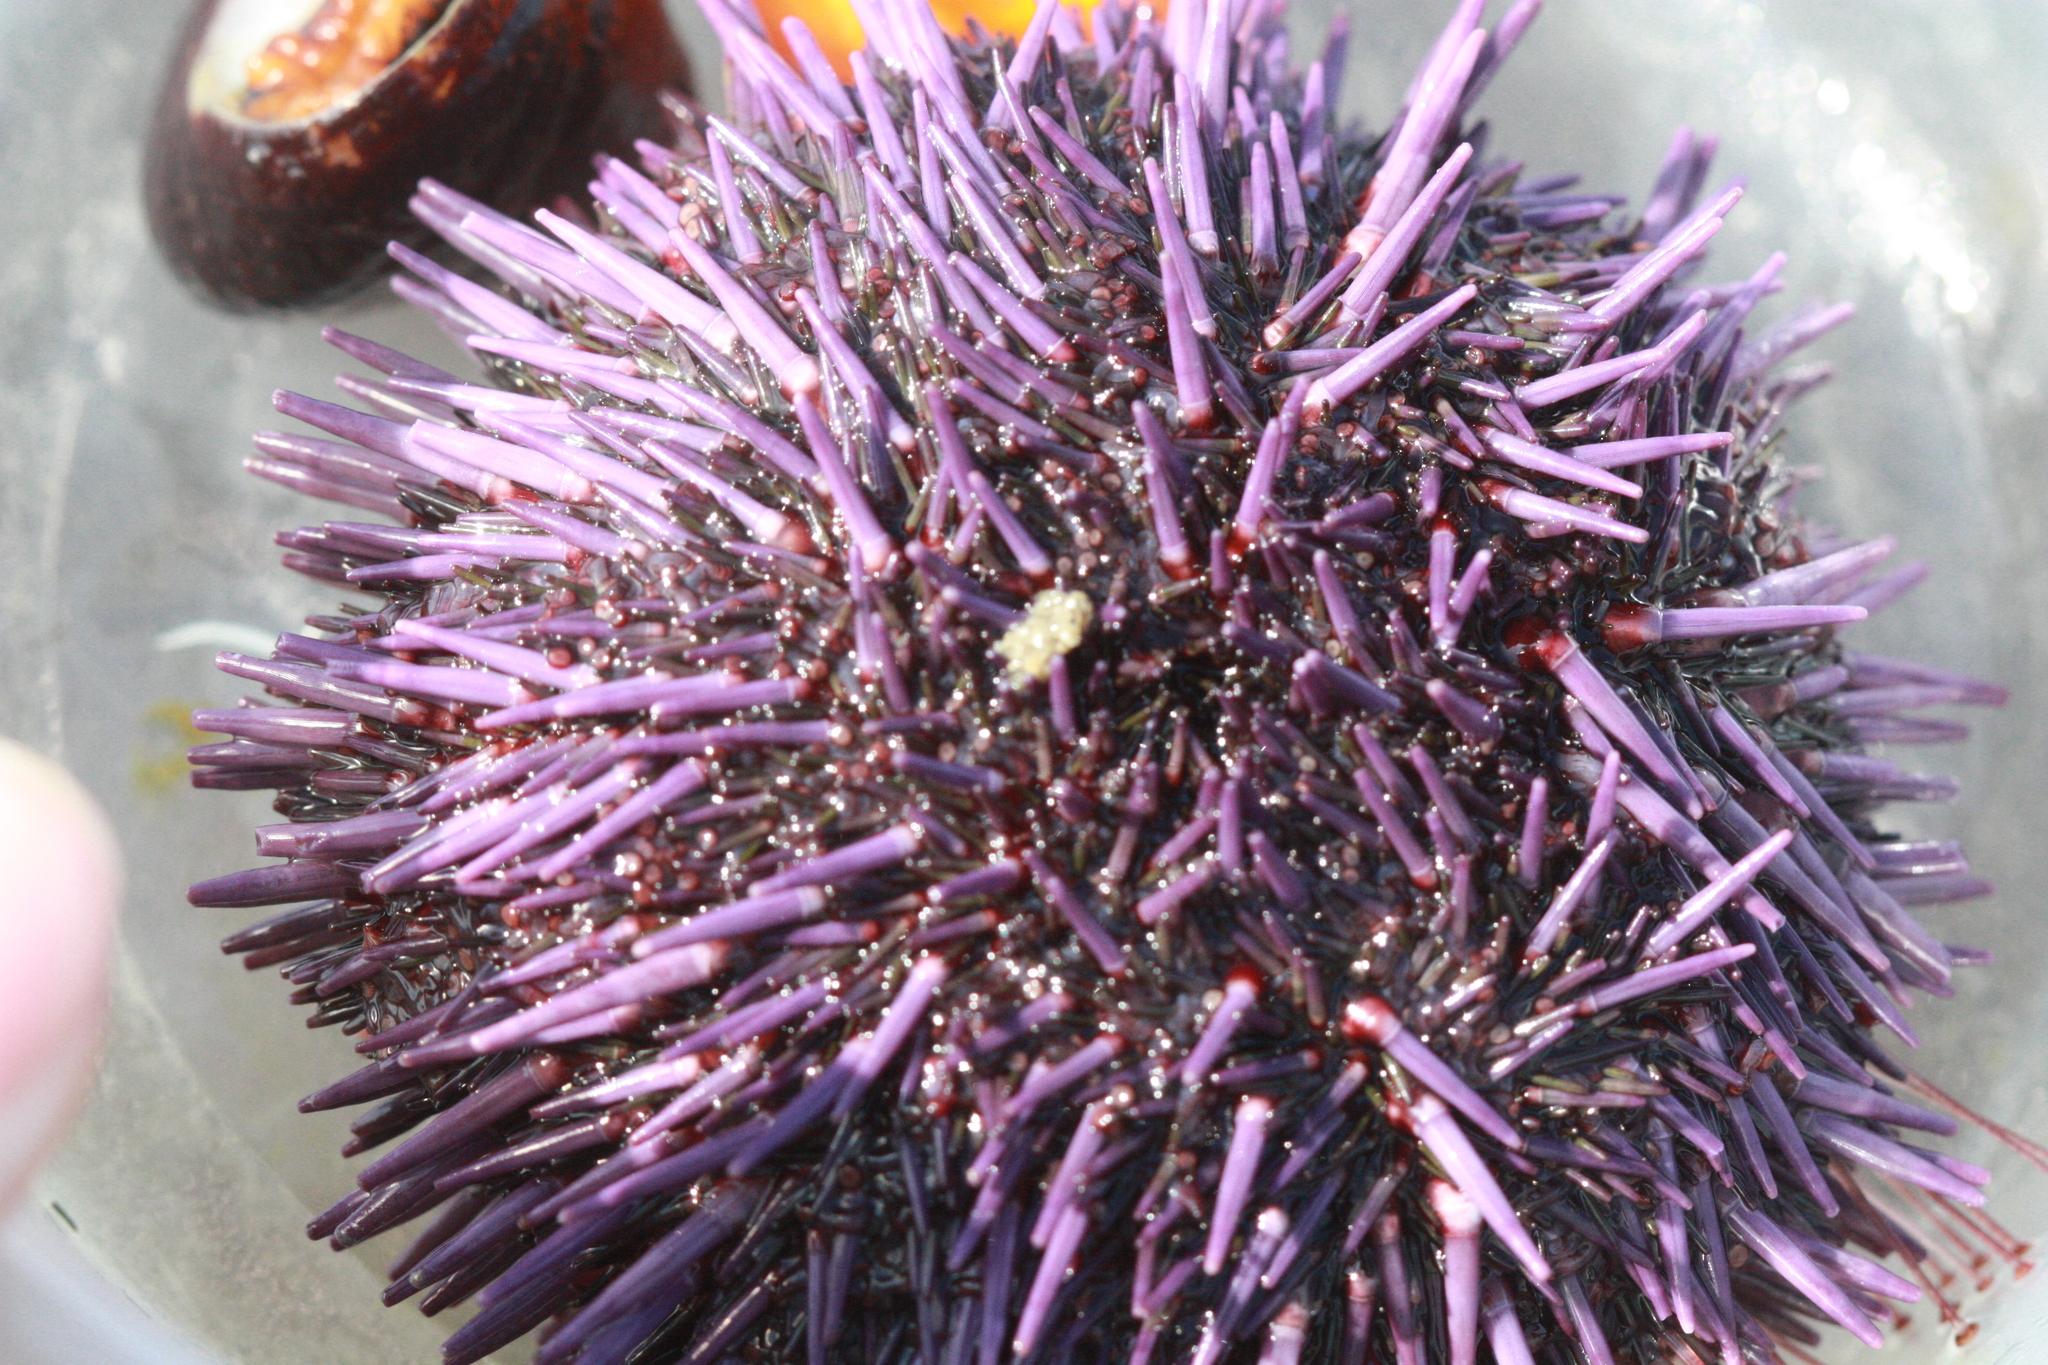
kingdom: Animalia
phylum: Echinodermata
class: Echinoidea
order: Camarodonta
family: Strongylocentrotidae
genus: Strongylocentrotus
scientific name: Strongylocentrotus purpuratus
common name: Purple sea urchin
